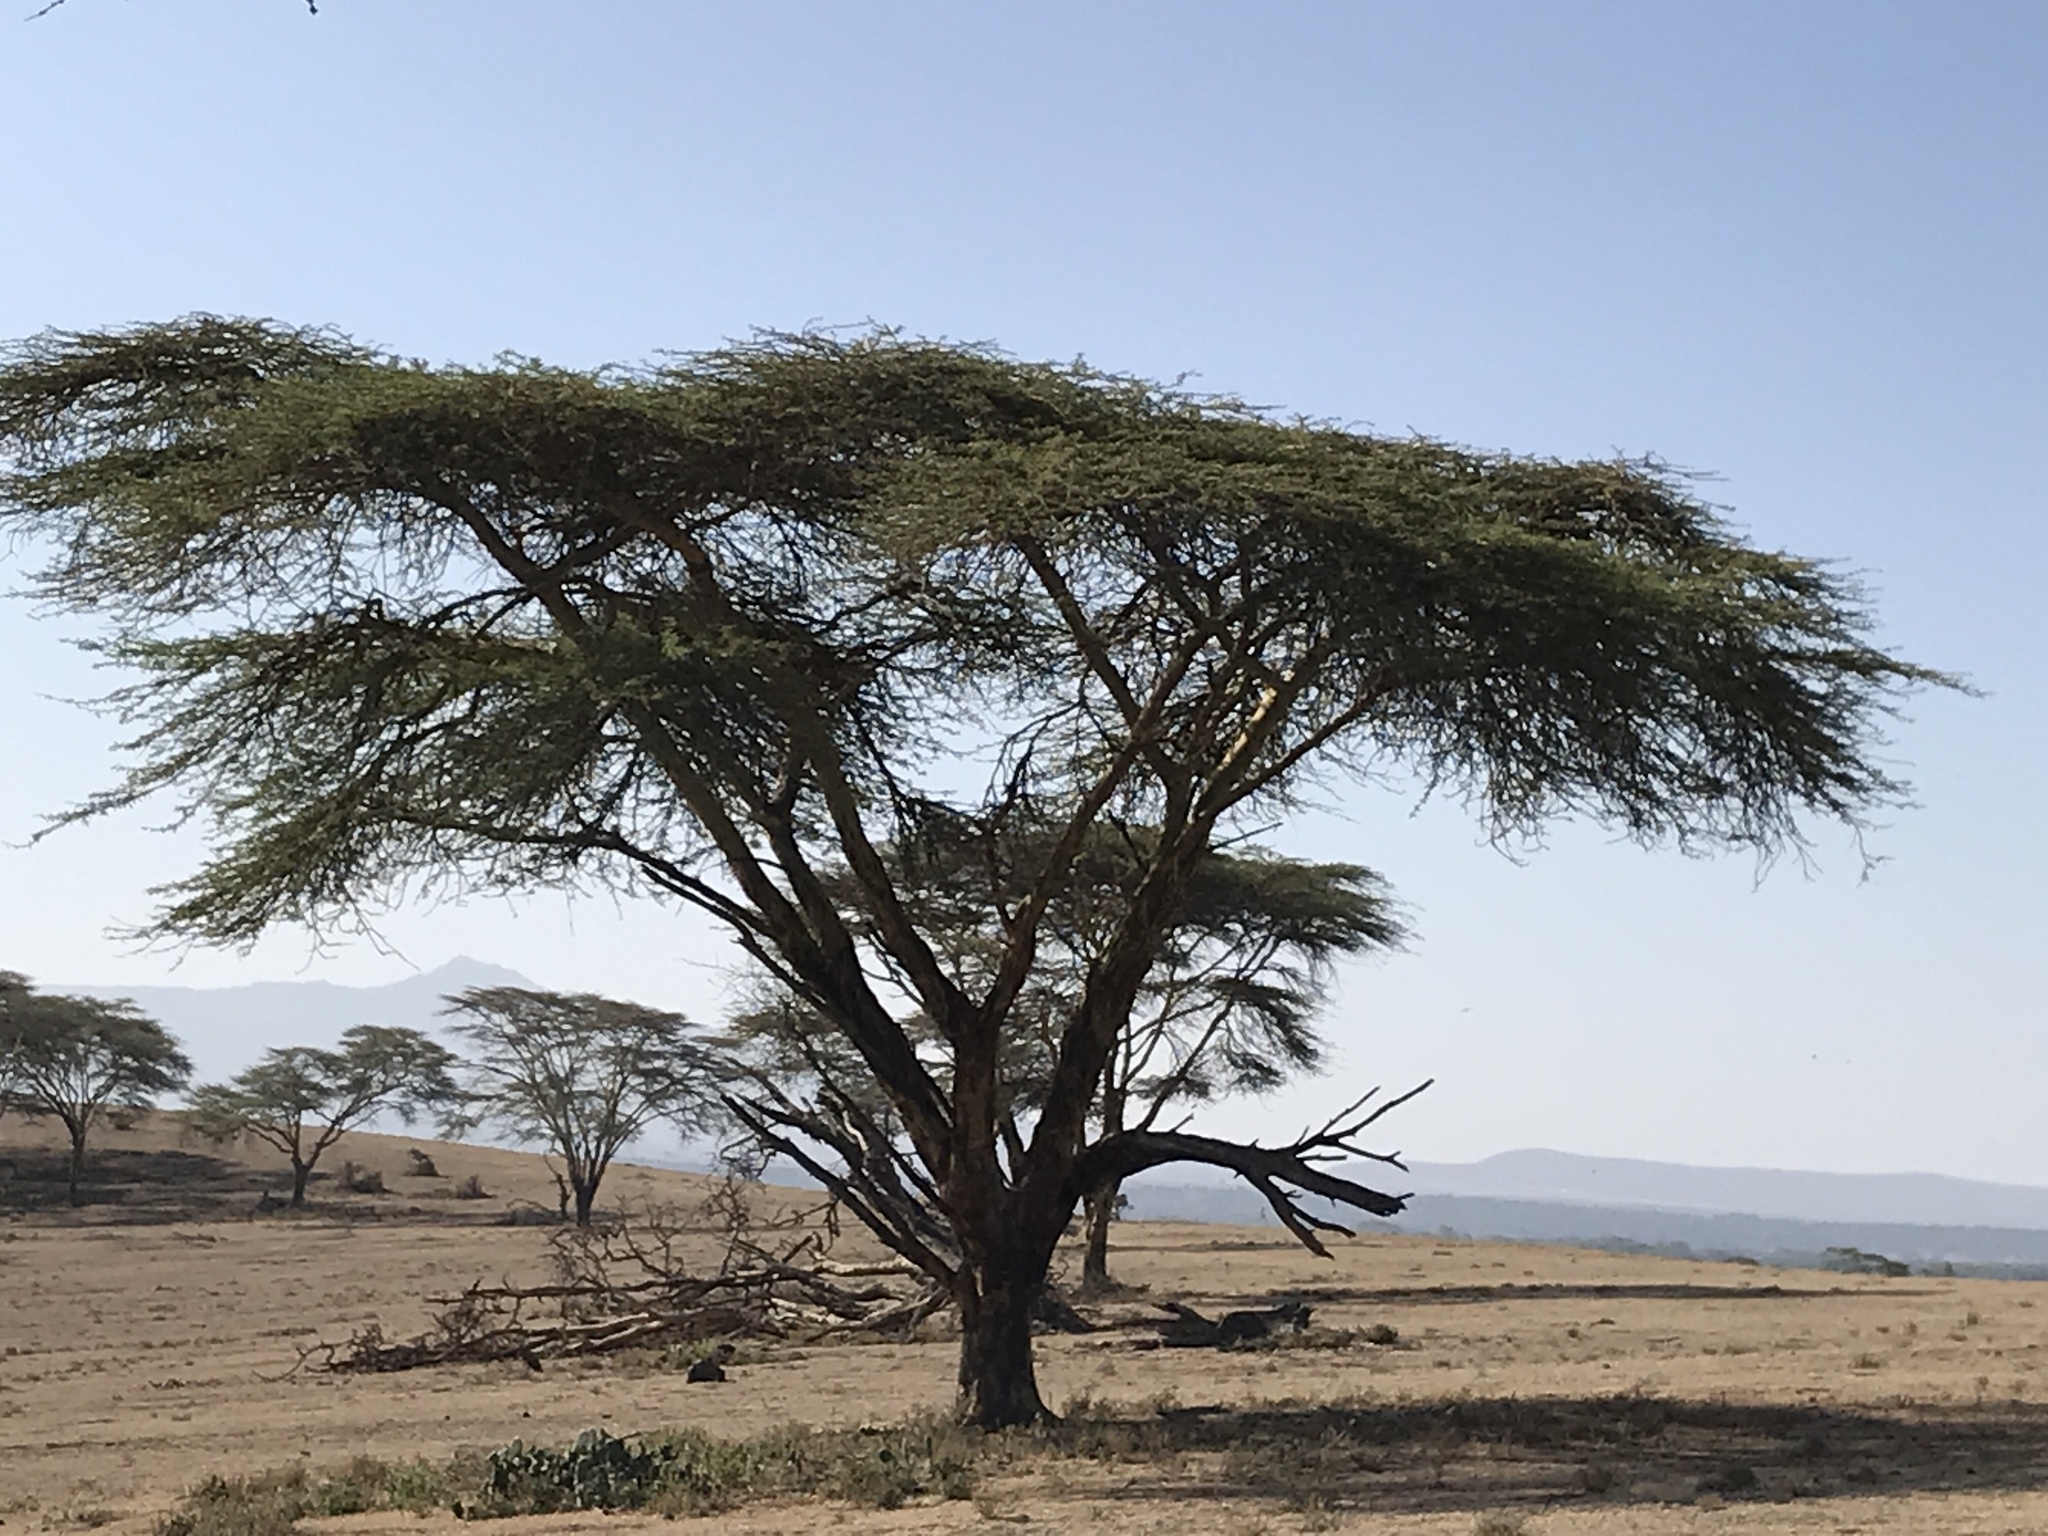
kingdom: Plantae
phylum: Tracheophyta
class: Magnoliopsida
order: Fabales
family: Fabaceae
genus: Vachellia
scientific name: Vachellia xanthophloea
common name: Fever tree
